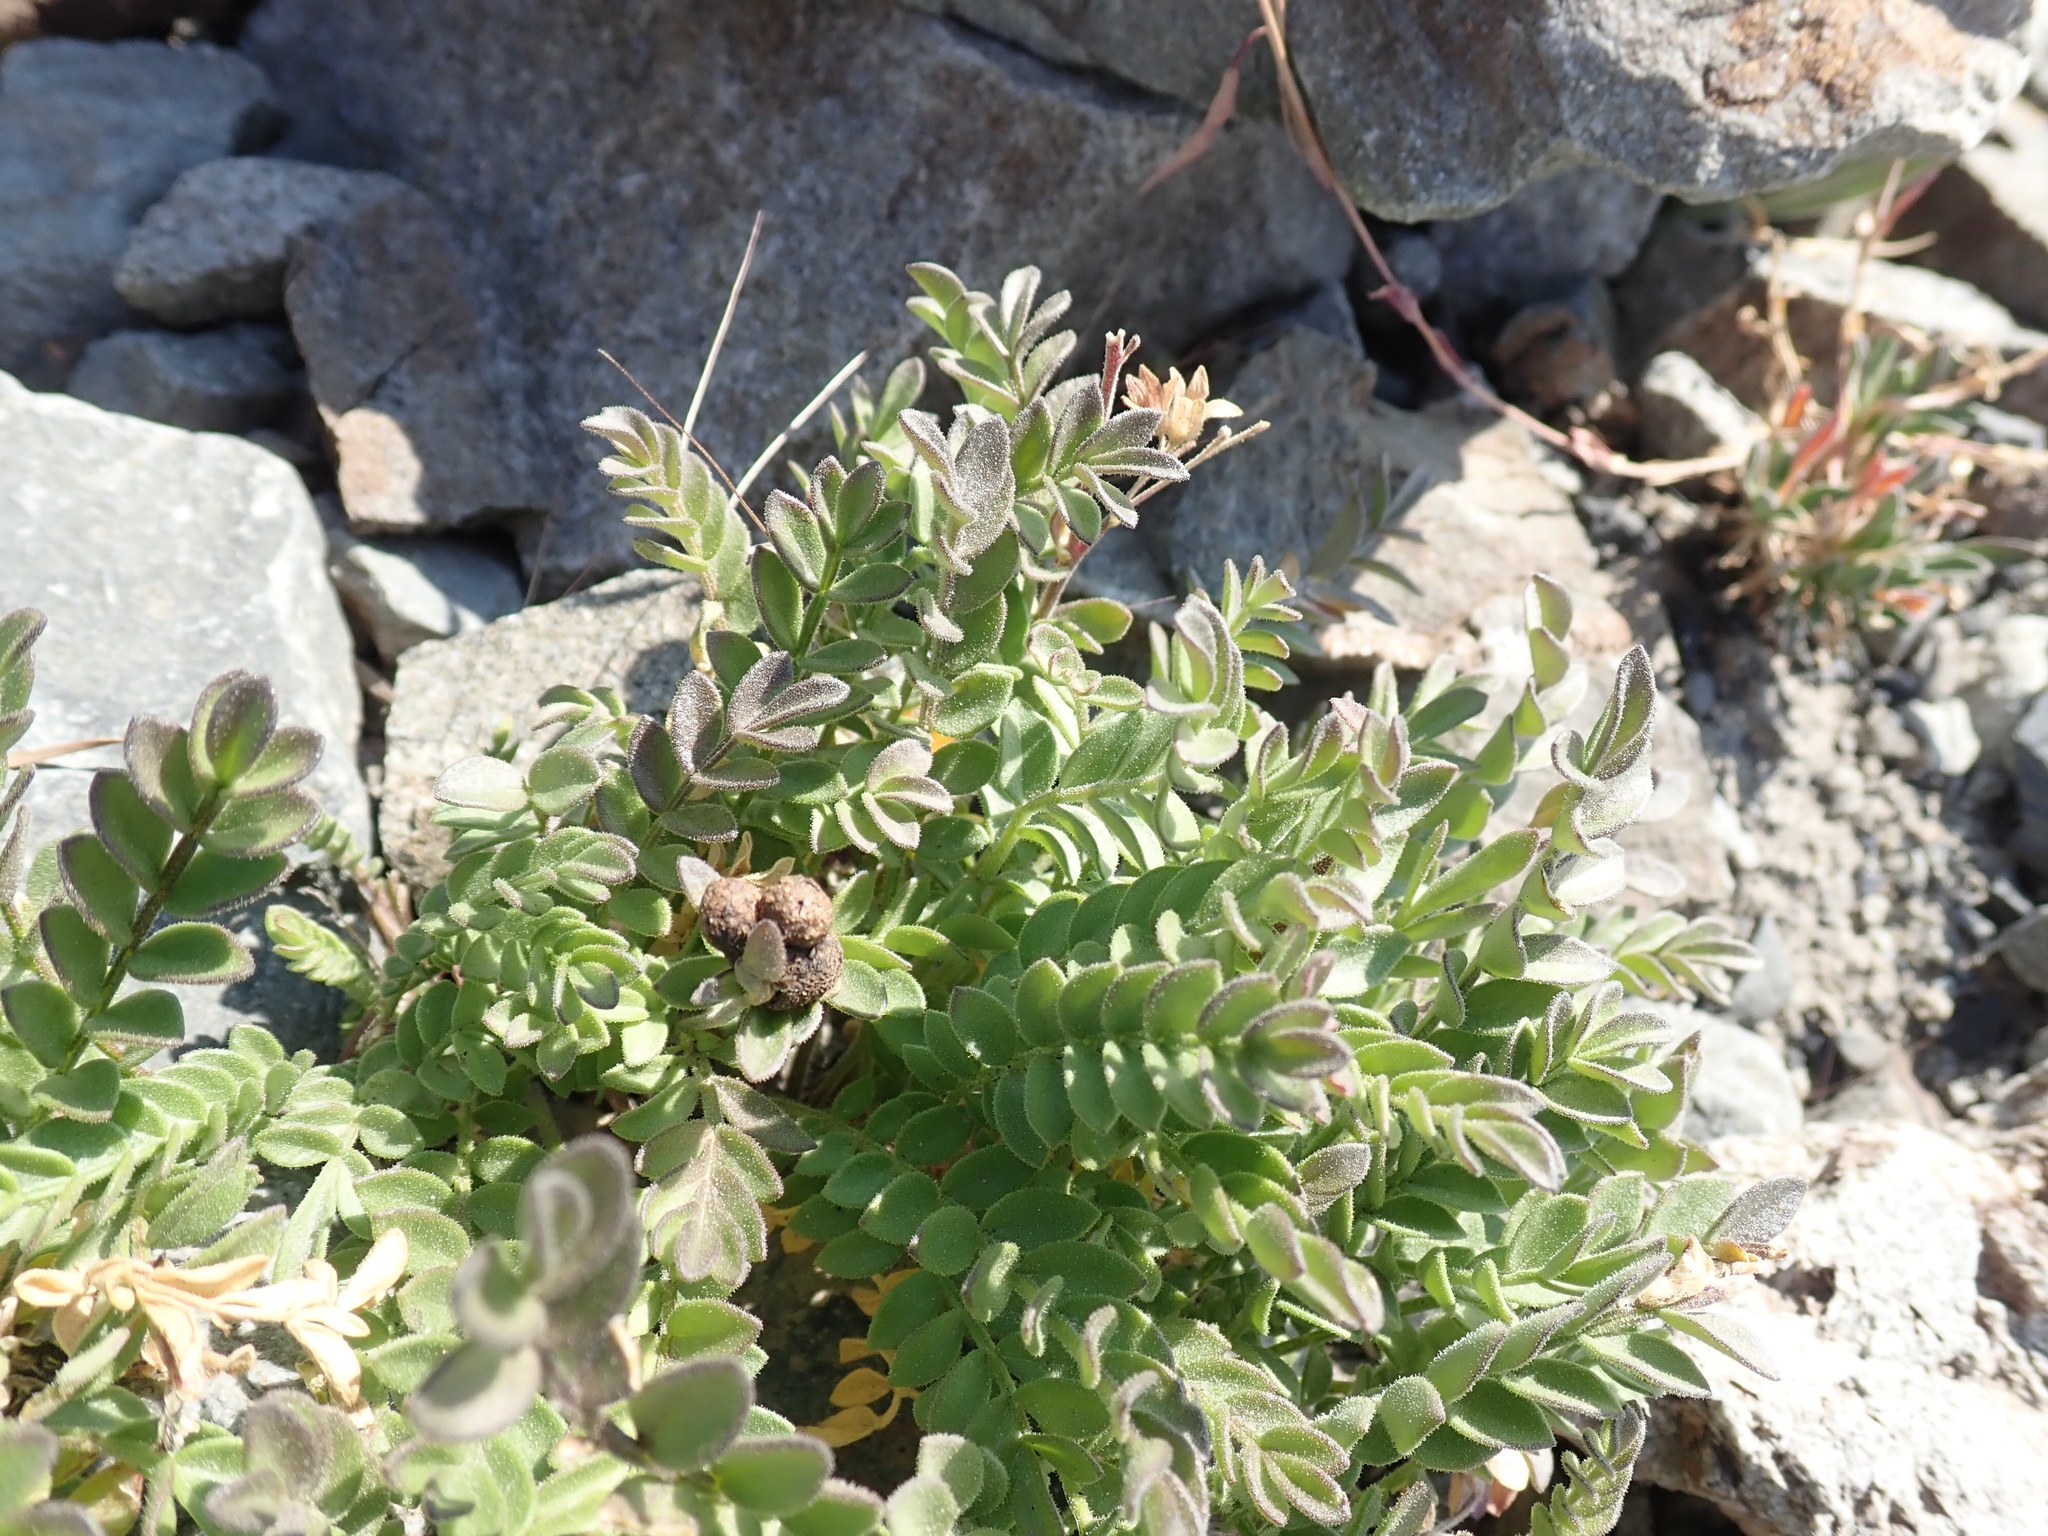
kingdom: Plantae
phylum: Tracheophyta
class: Magnoliopsida
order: Ericales
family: Polemoniaceae
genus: Polemonium
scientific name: Polemonium pulcherrimum
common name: Short jacob's-ladder
